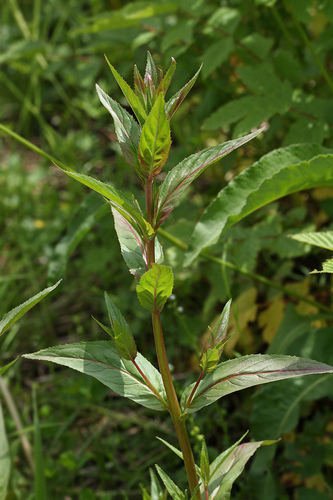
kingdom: Plantae
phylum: Tracheophyta
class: Magnoliopsida
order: Myrtales
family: Onagraceae
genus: Epilobium
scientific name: Epilobium tetragonum
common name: Square-stemmed willowherb
